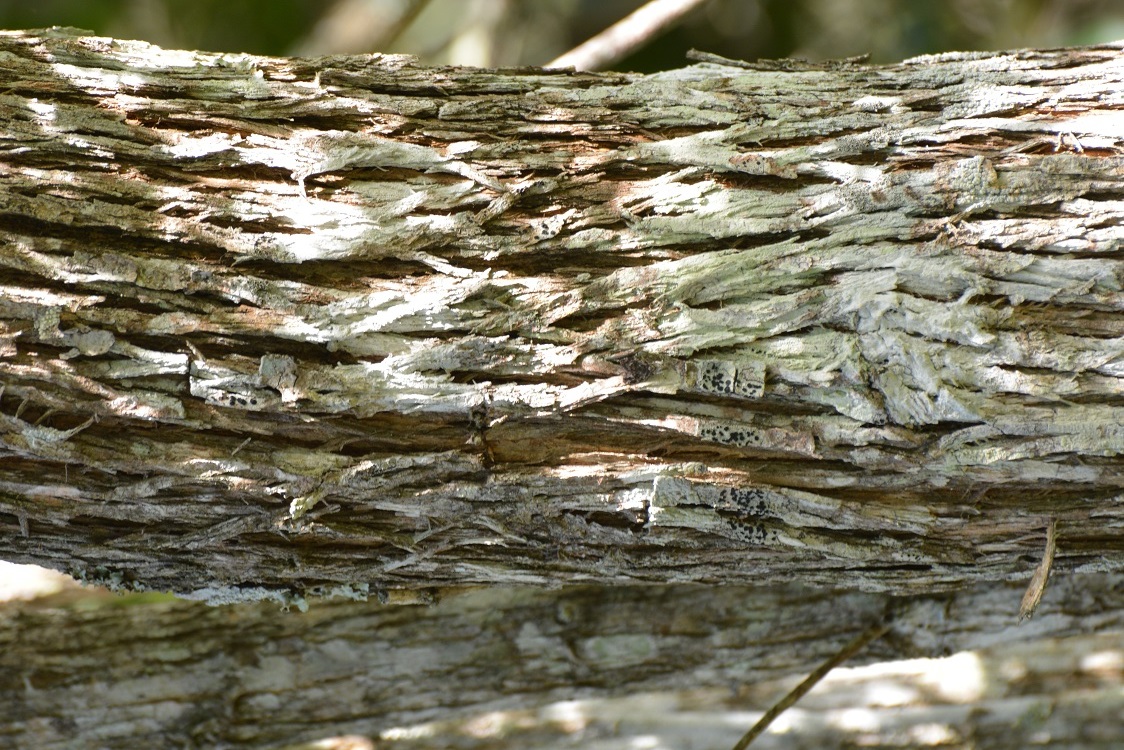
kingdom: Plantae
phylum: Tracheophyta
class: Magnoliopsida
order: Fabales
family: Fabaceae
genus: Mariosousa
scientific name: Mariosousa coulteri
